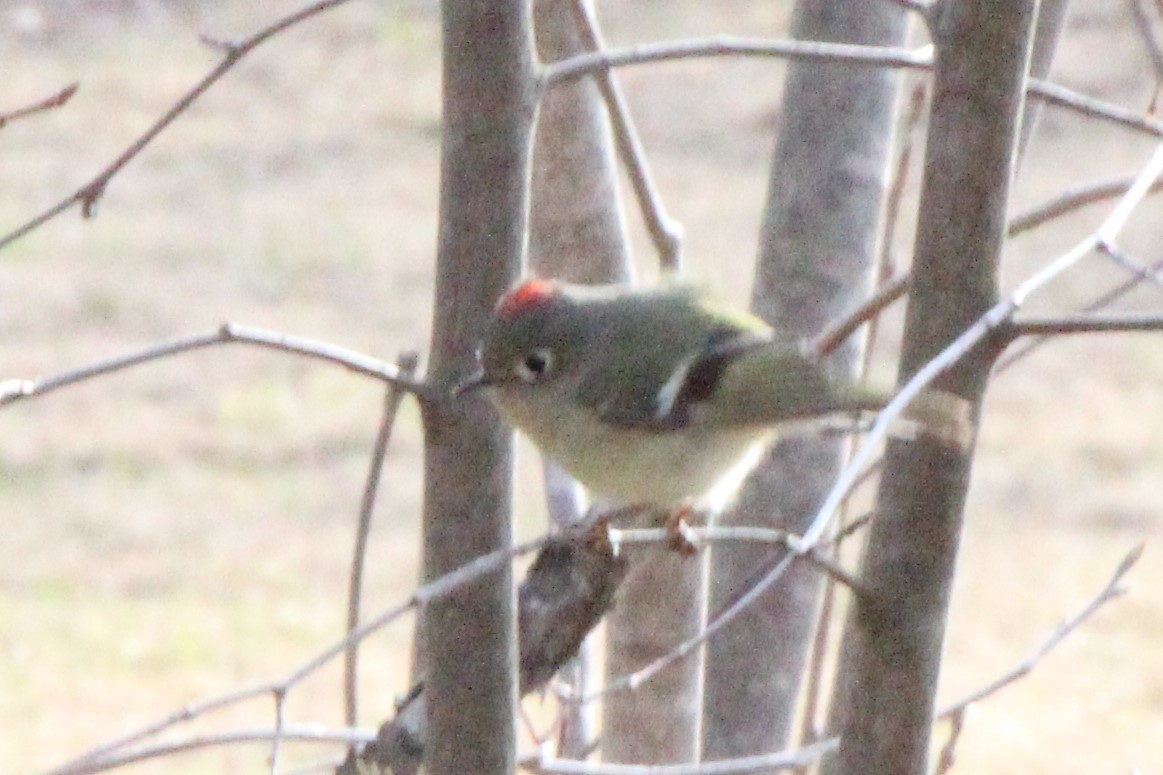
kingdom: Animalia
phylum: Chordata
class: Aves
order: Passeriformes
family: Regulidae
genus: Regulus
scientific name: Regulus calendula
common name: Ruby-crowned kinglet
